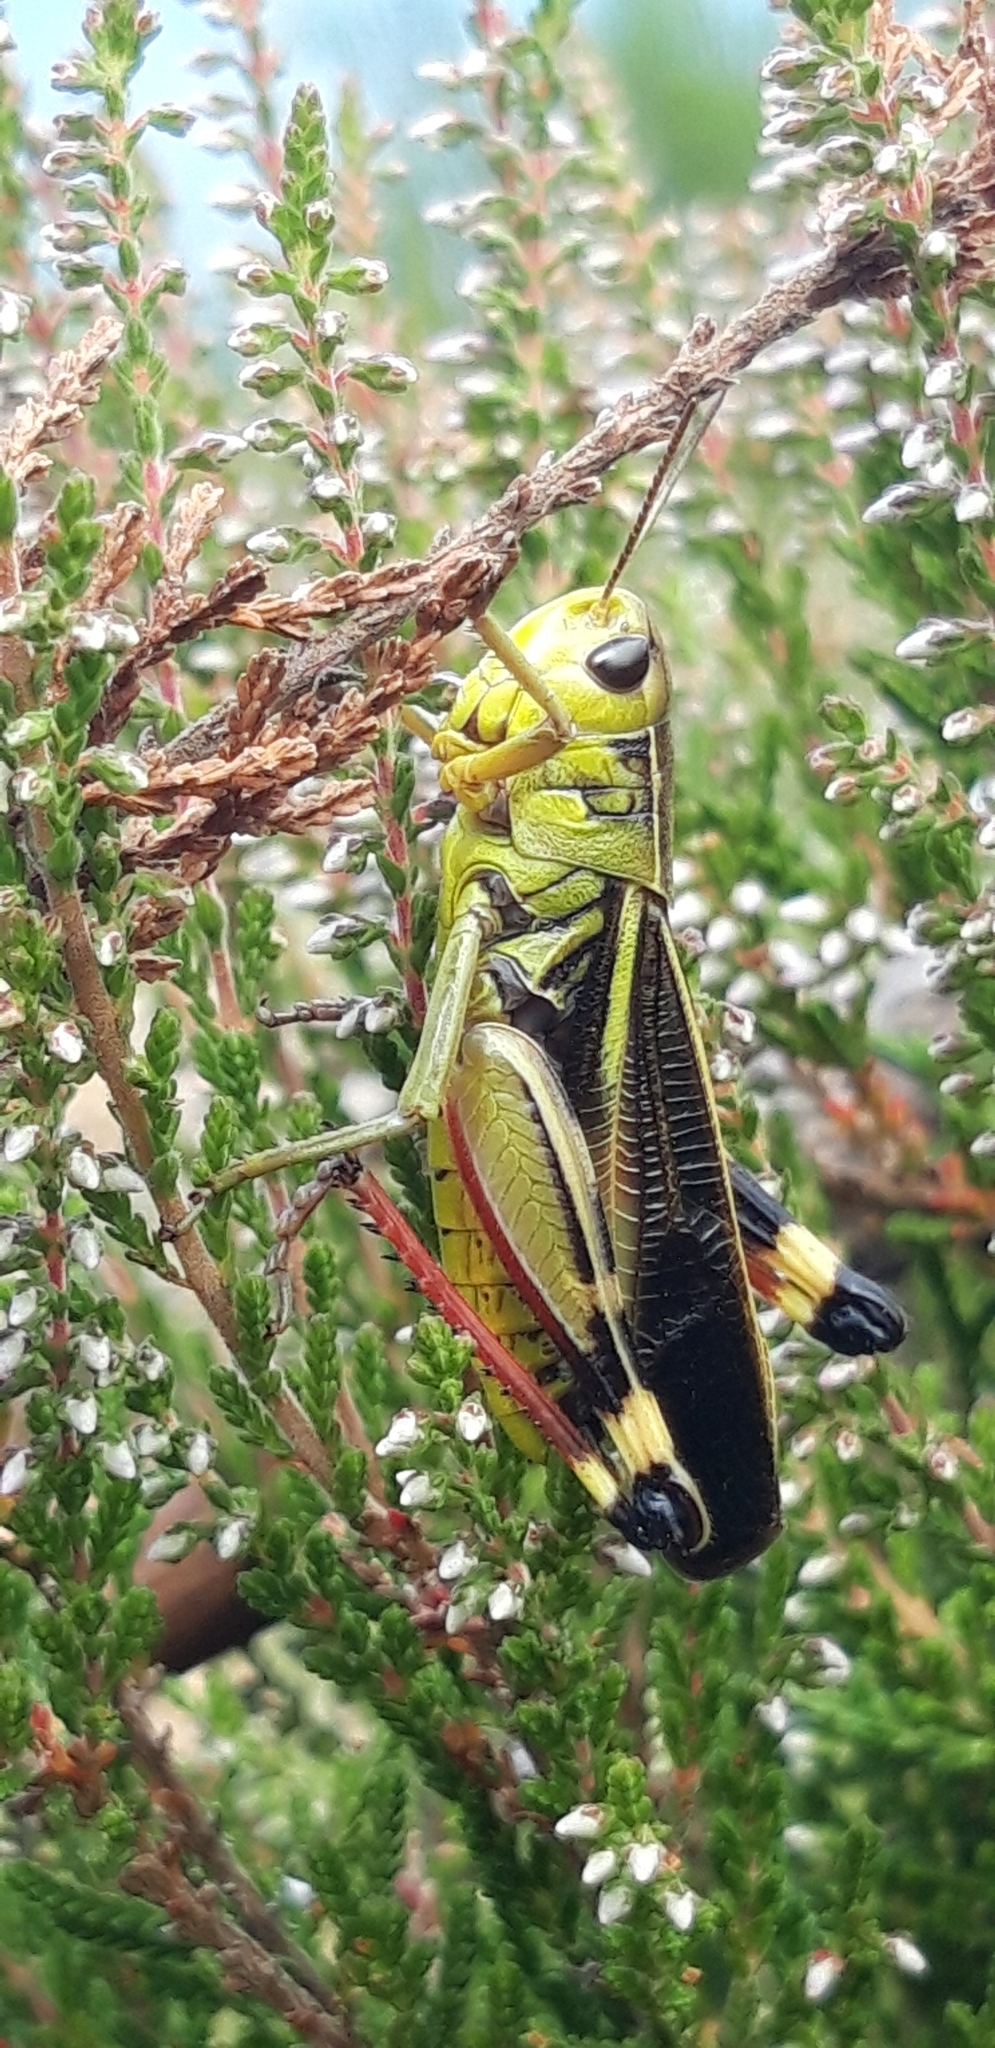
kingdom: Animalia
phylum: Arthropoda
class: Insecta
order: Orthoptera
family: Acrididae
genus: Arcyptera
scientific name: Arcyptera fusca
